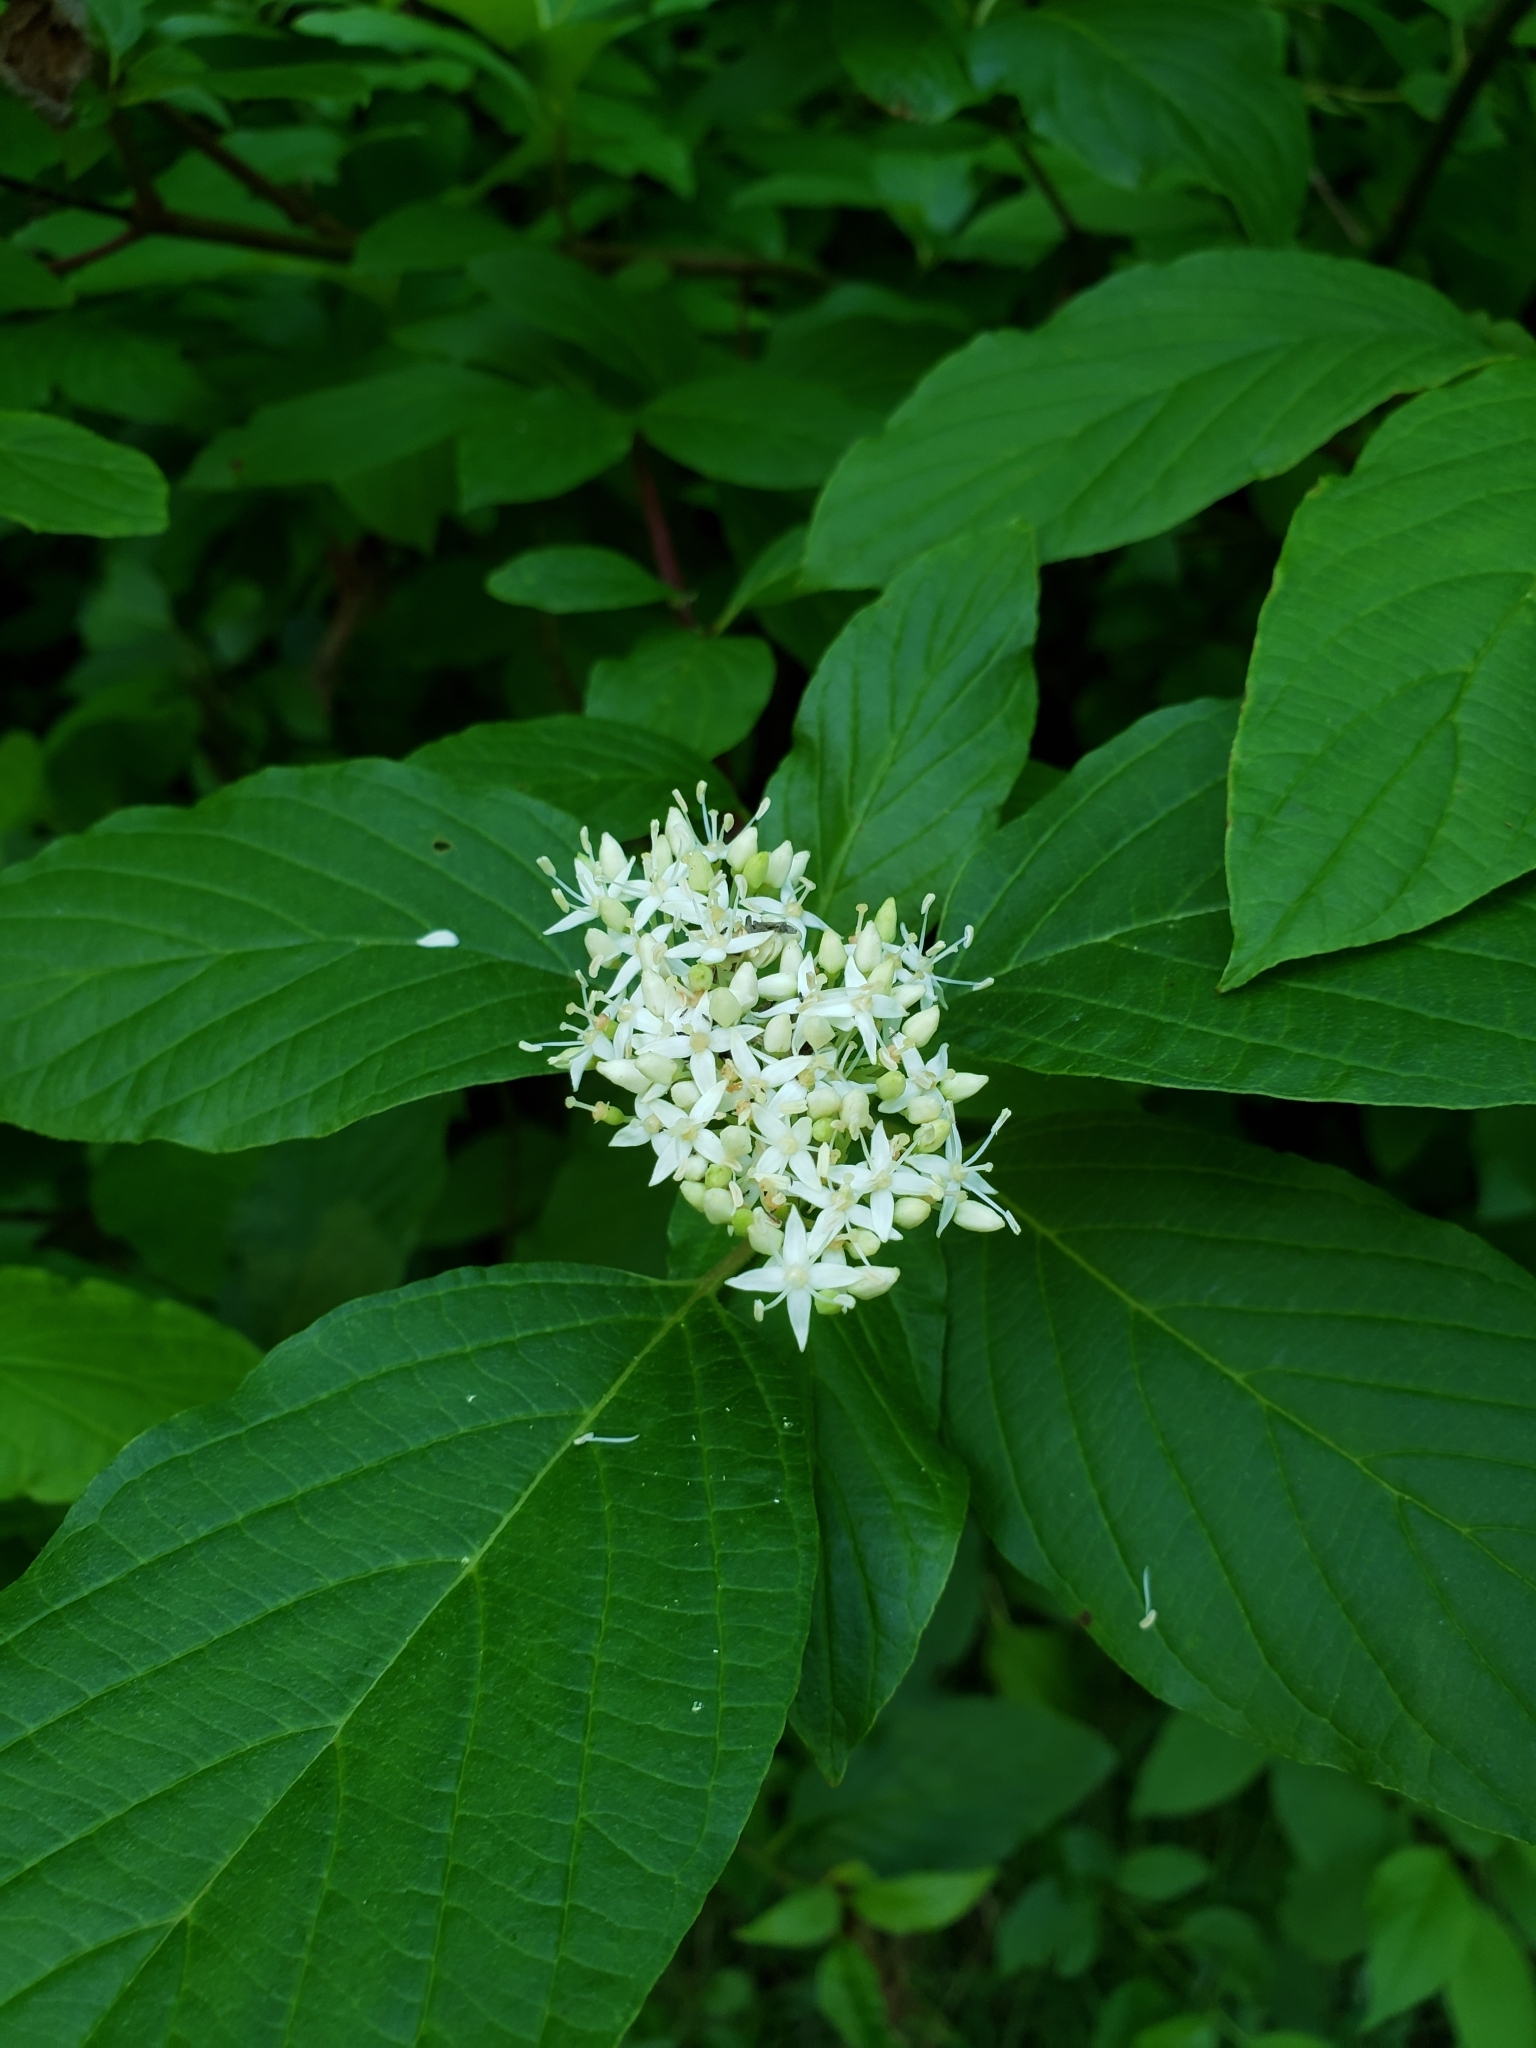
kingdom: Plantae
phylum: Tracheophyta
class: Magnoliopsida
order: Cornales
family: Cornaceae
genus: Cornus
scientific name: Cornus sericea
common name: Red-osier dogwood
